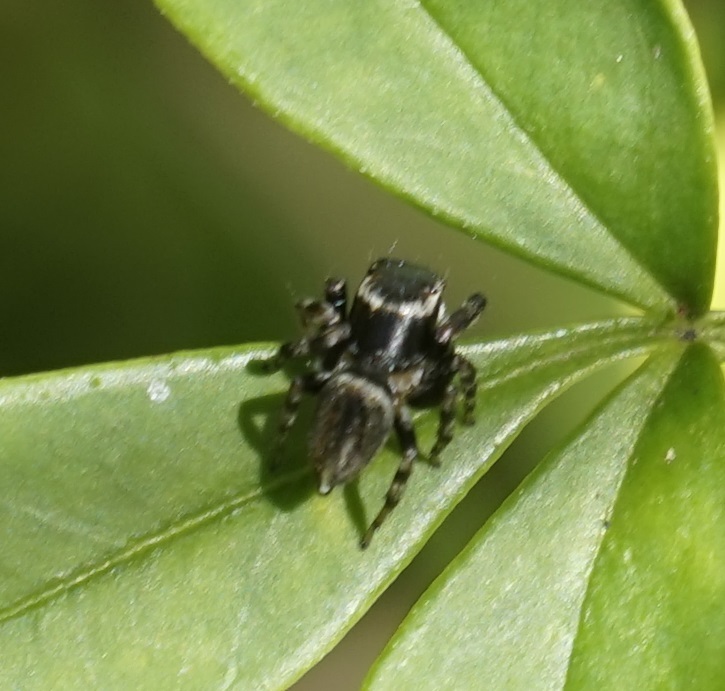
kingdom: Animalia
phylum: Arthropoda
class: Arachnida
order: Araneae
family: Salticidae
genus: Maratus
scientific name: Maratus scutulatus
